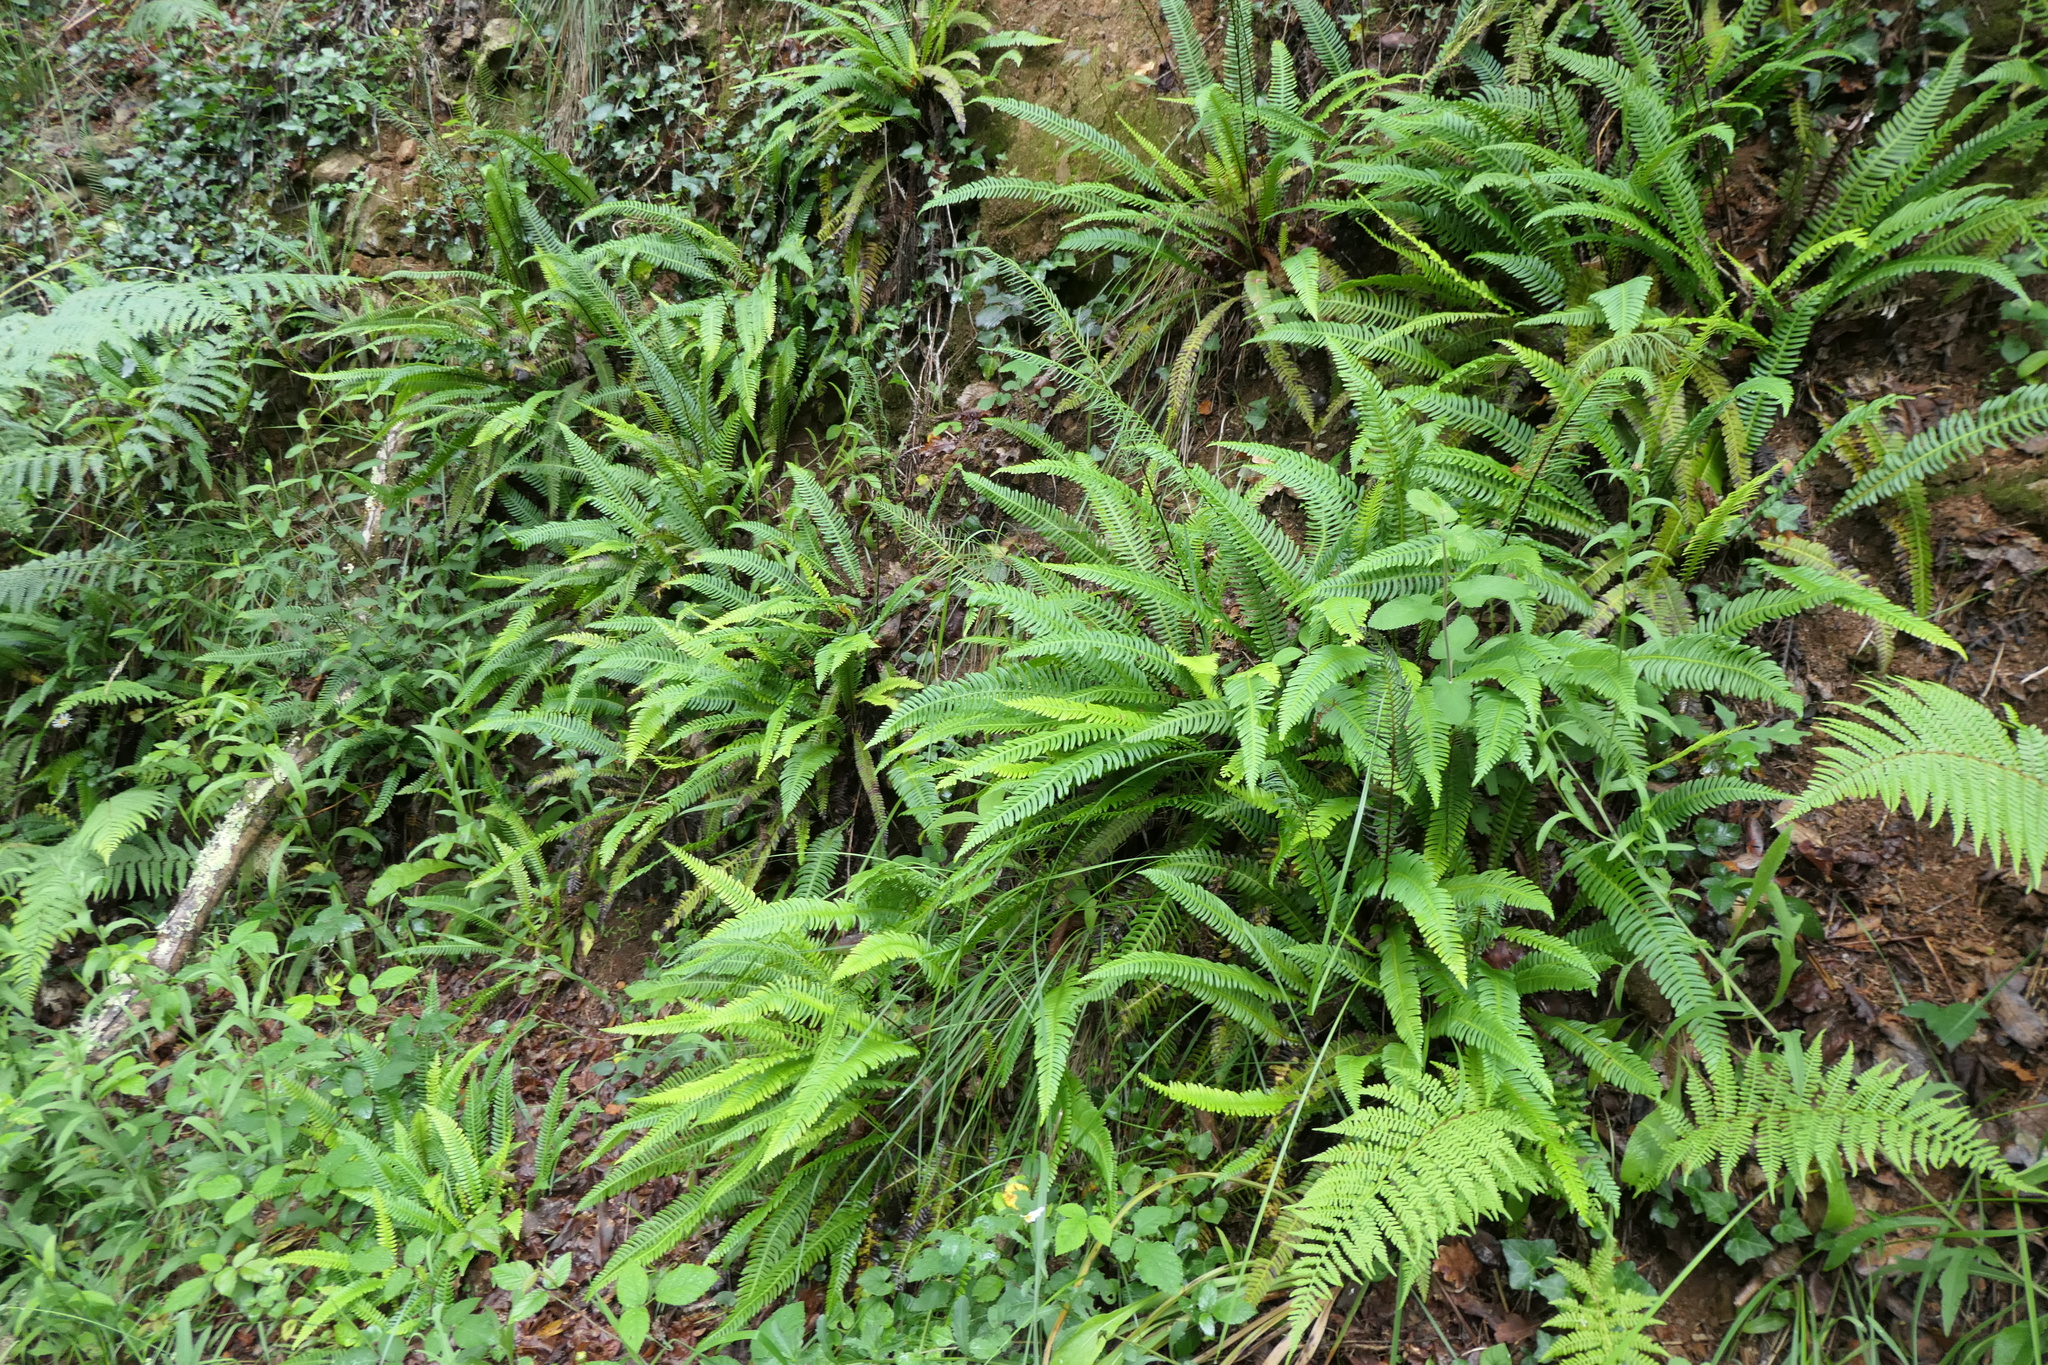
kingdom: Plantae
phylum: Tracheophyta
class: Polypodiopsida
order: Polypodiales
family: Blechnaceae
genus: Struthiopteris
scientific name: Struthiopteris spicant
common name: Deer fern
